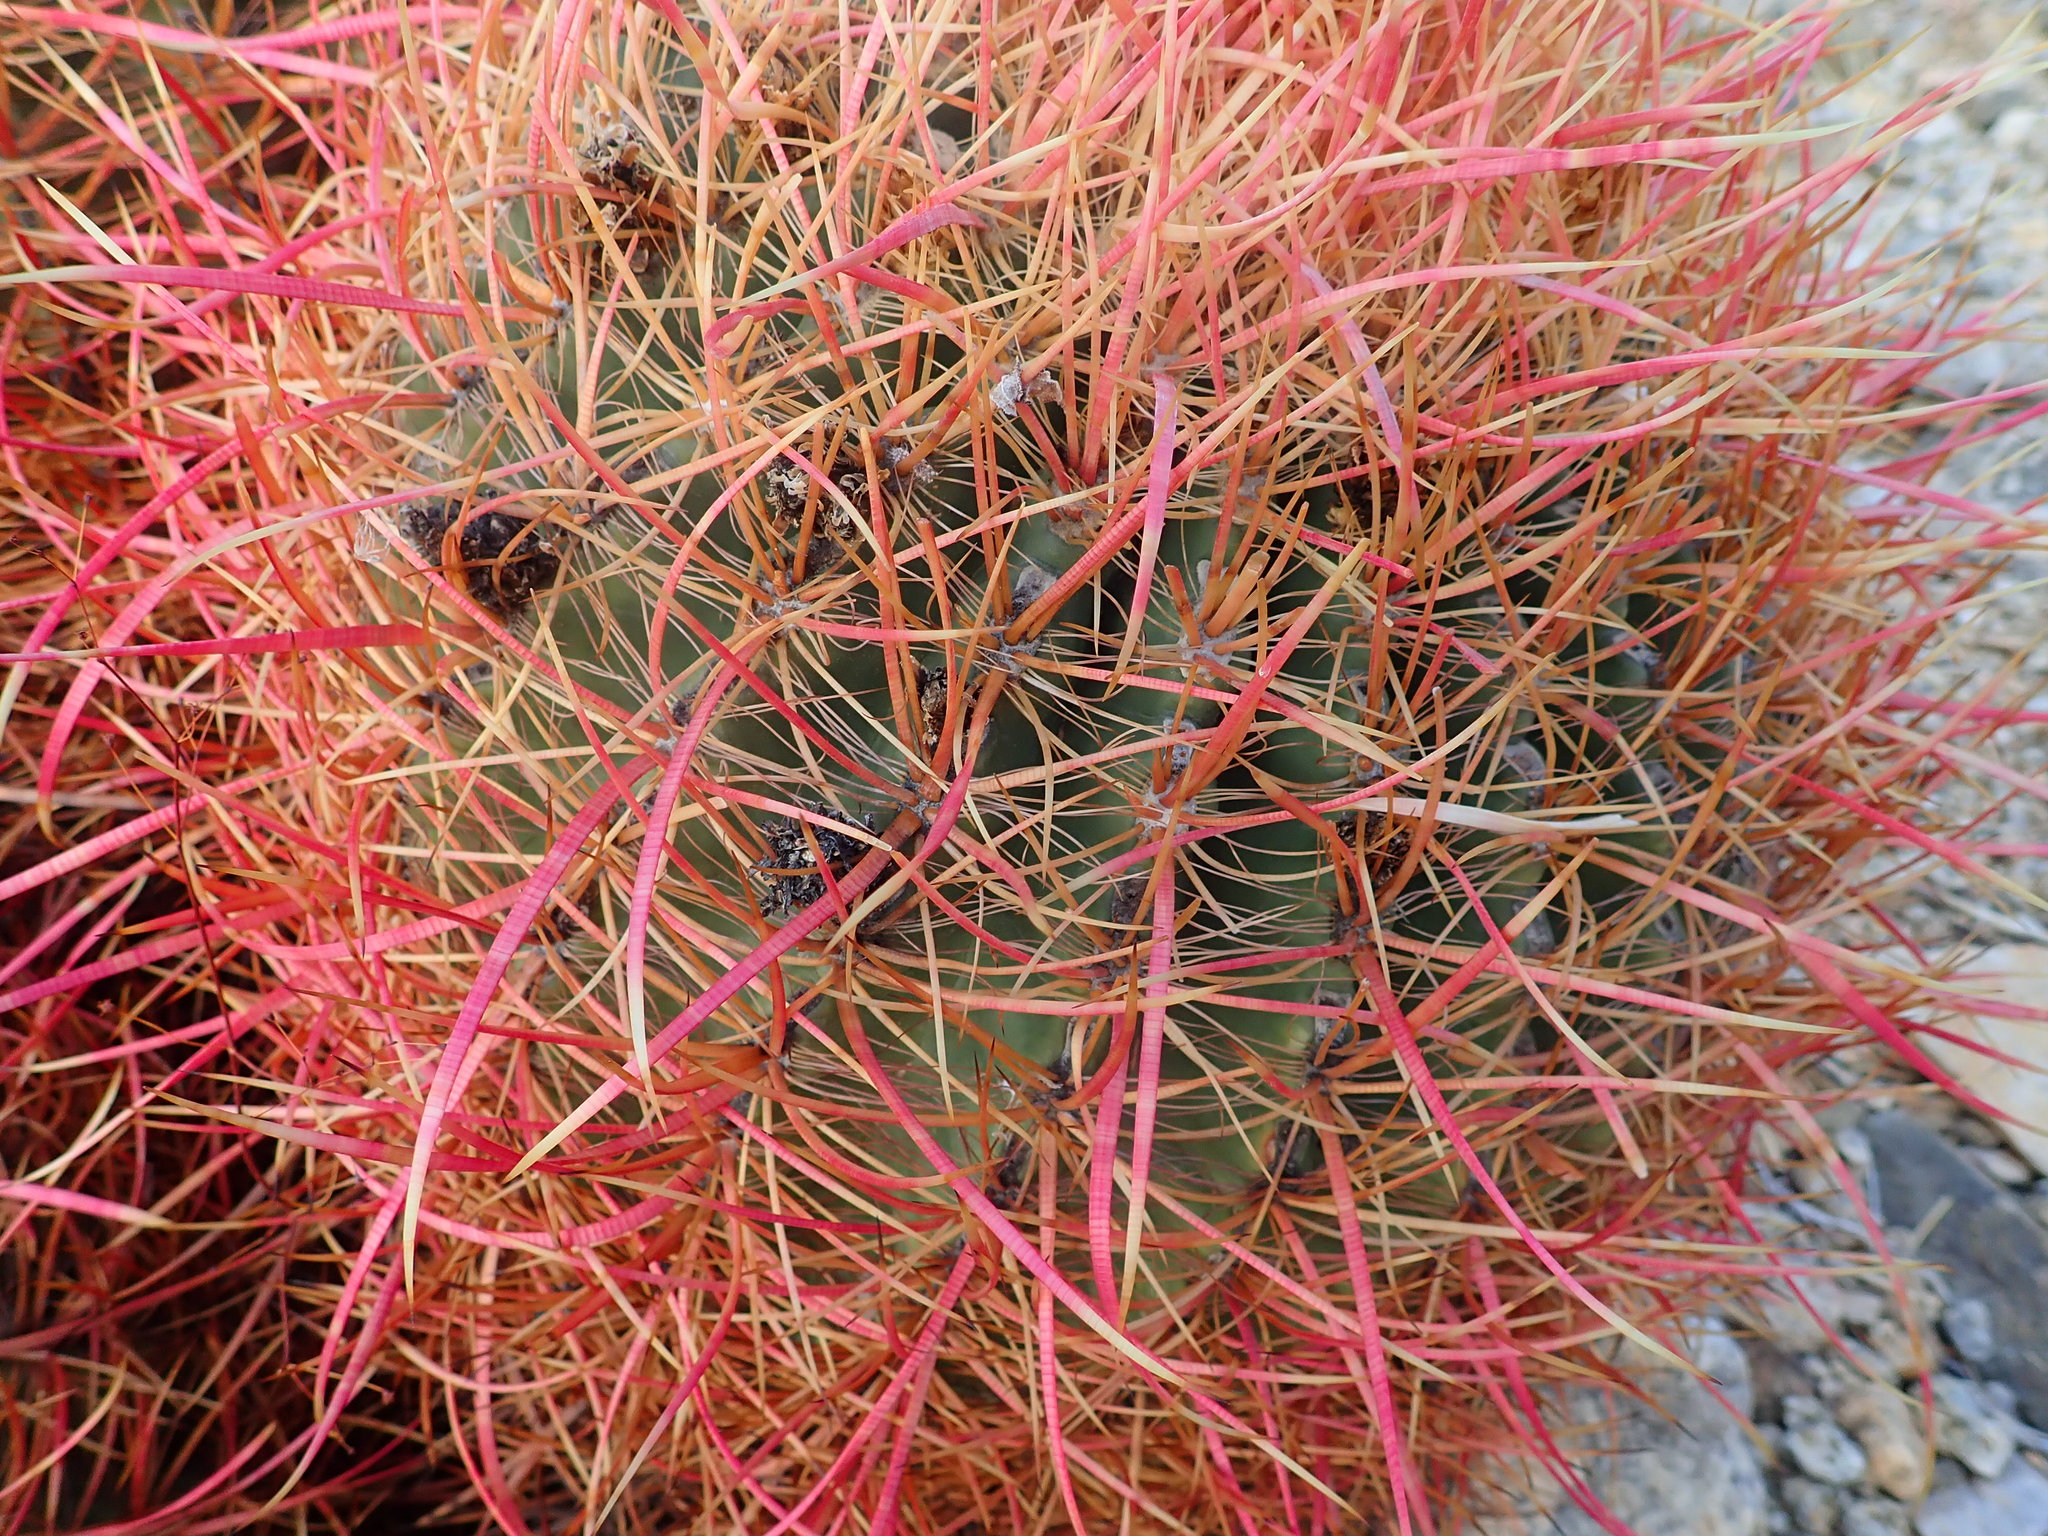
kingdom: Plantae
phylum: Tracheophyta
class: Magnoliopsida
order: Caryophyllales
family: Cactaceae
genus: Ferocactus
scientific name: Ferocactus cylindraceus
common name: California barrel cactus
